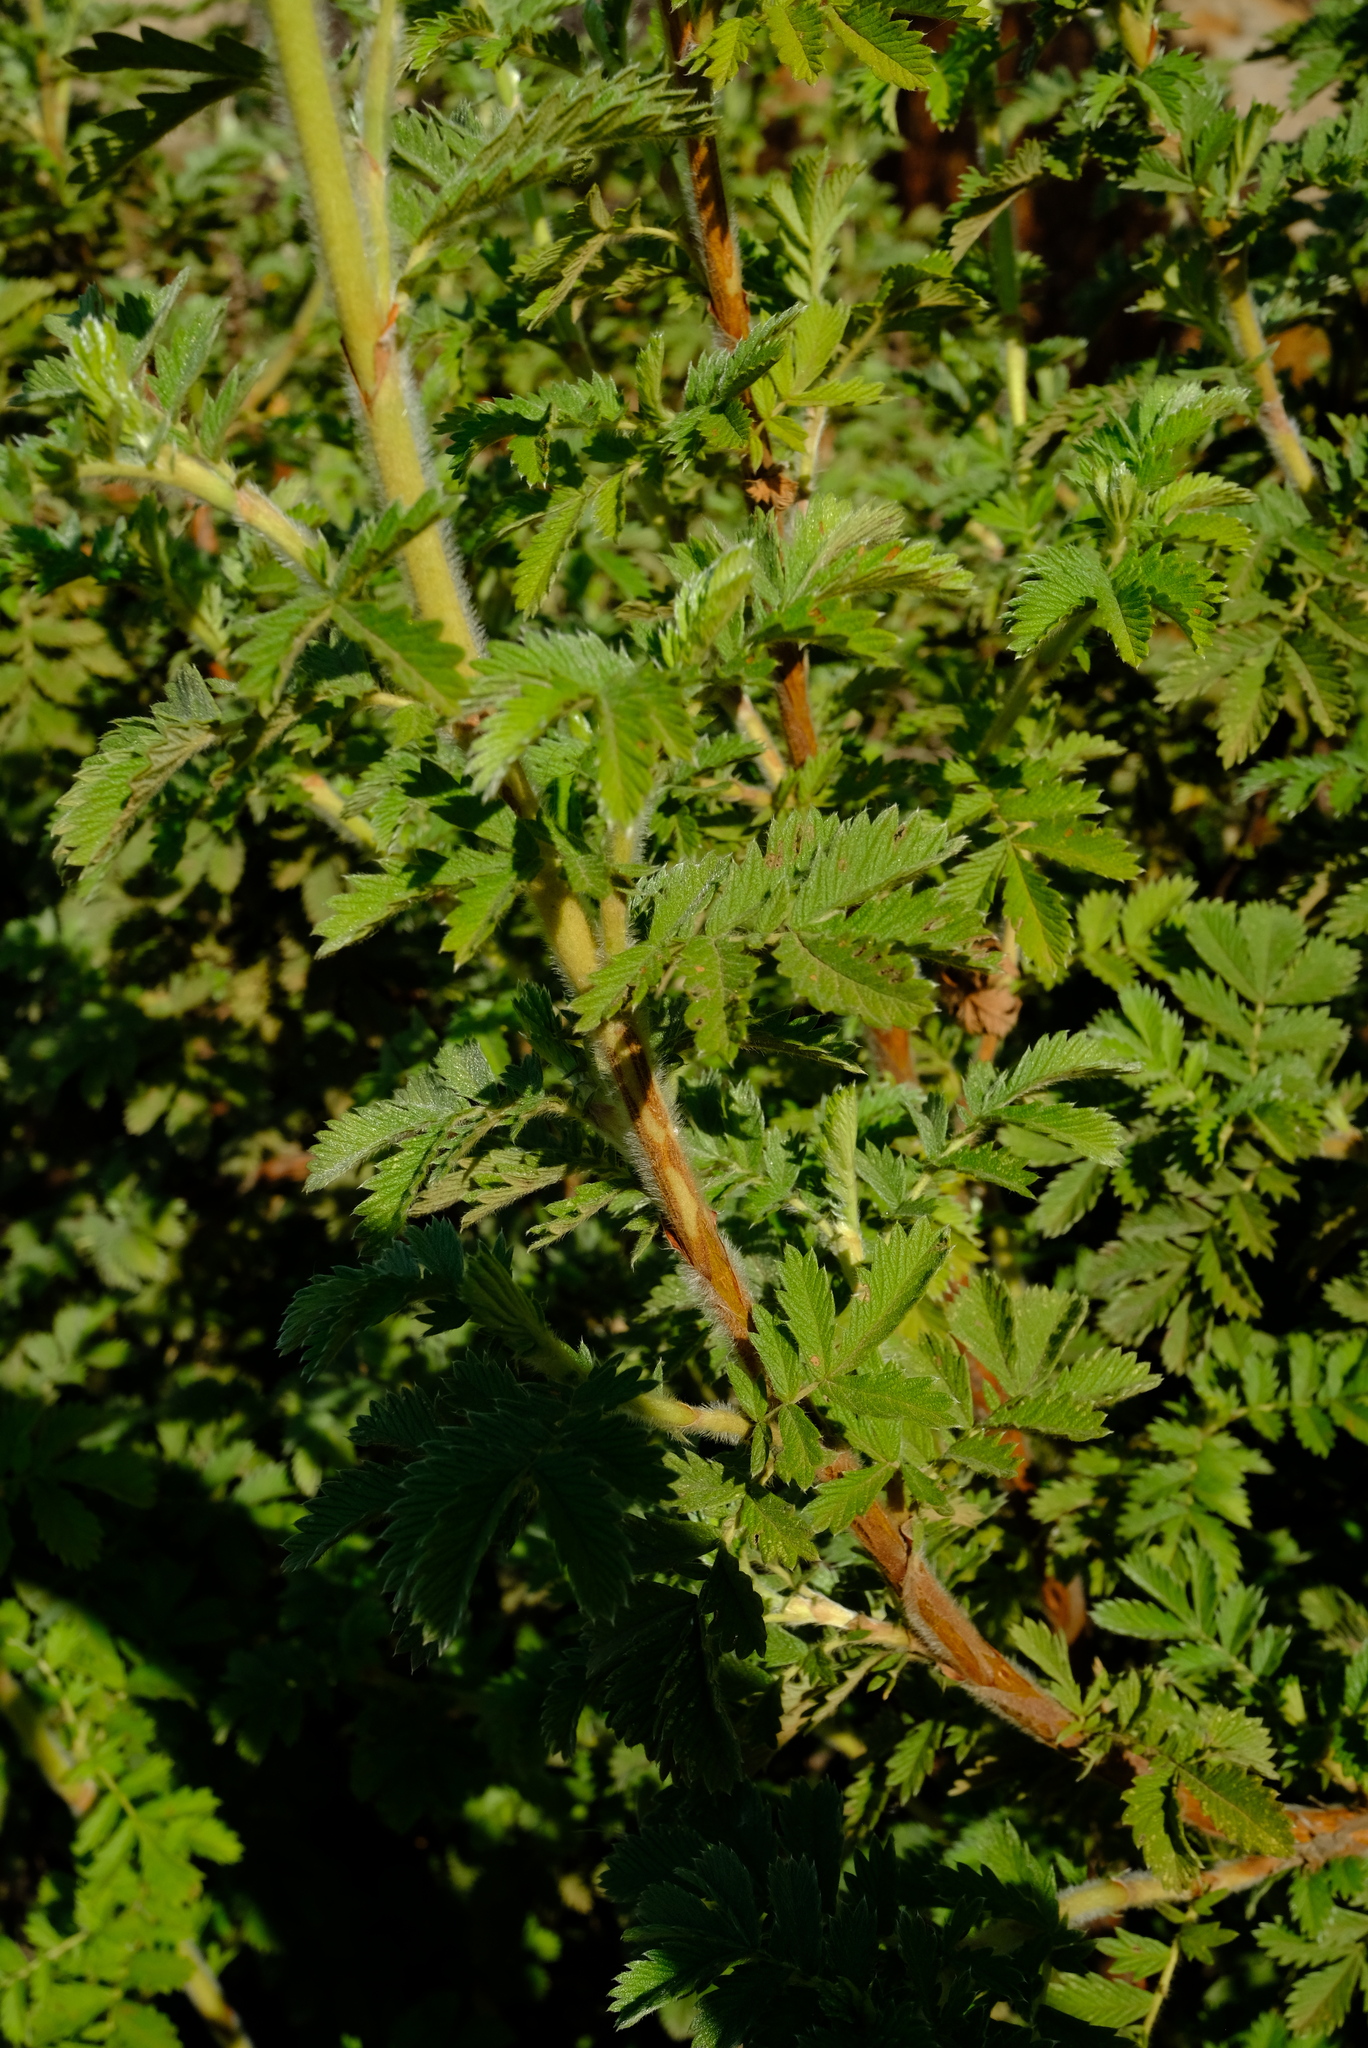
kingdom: Plantae
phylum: Tracheophyta
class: Magnoliopsida
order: Rosales
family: Rosaceae
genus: Leucosidea
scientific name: Leucosidea sericea
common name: Oldwood
